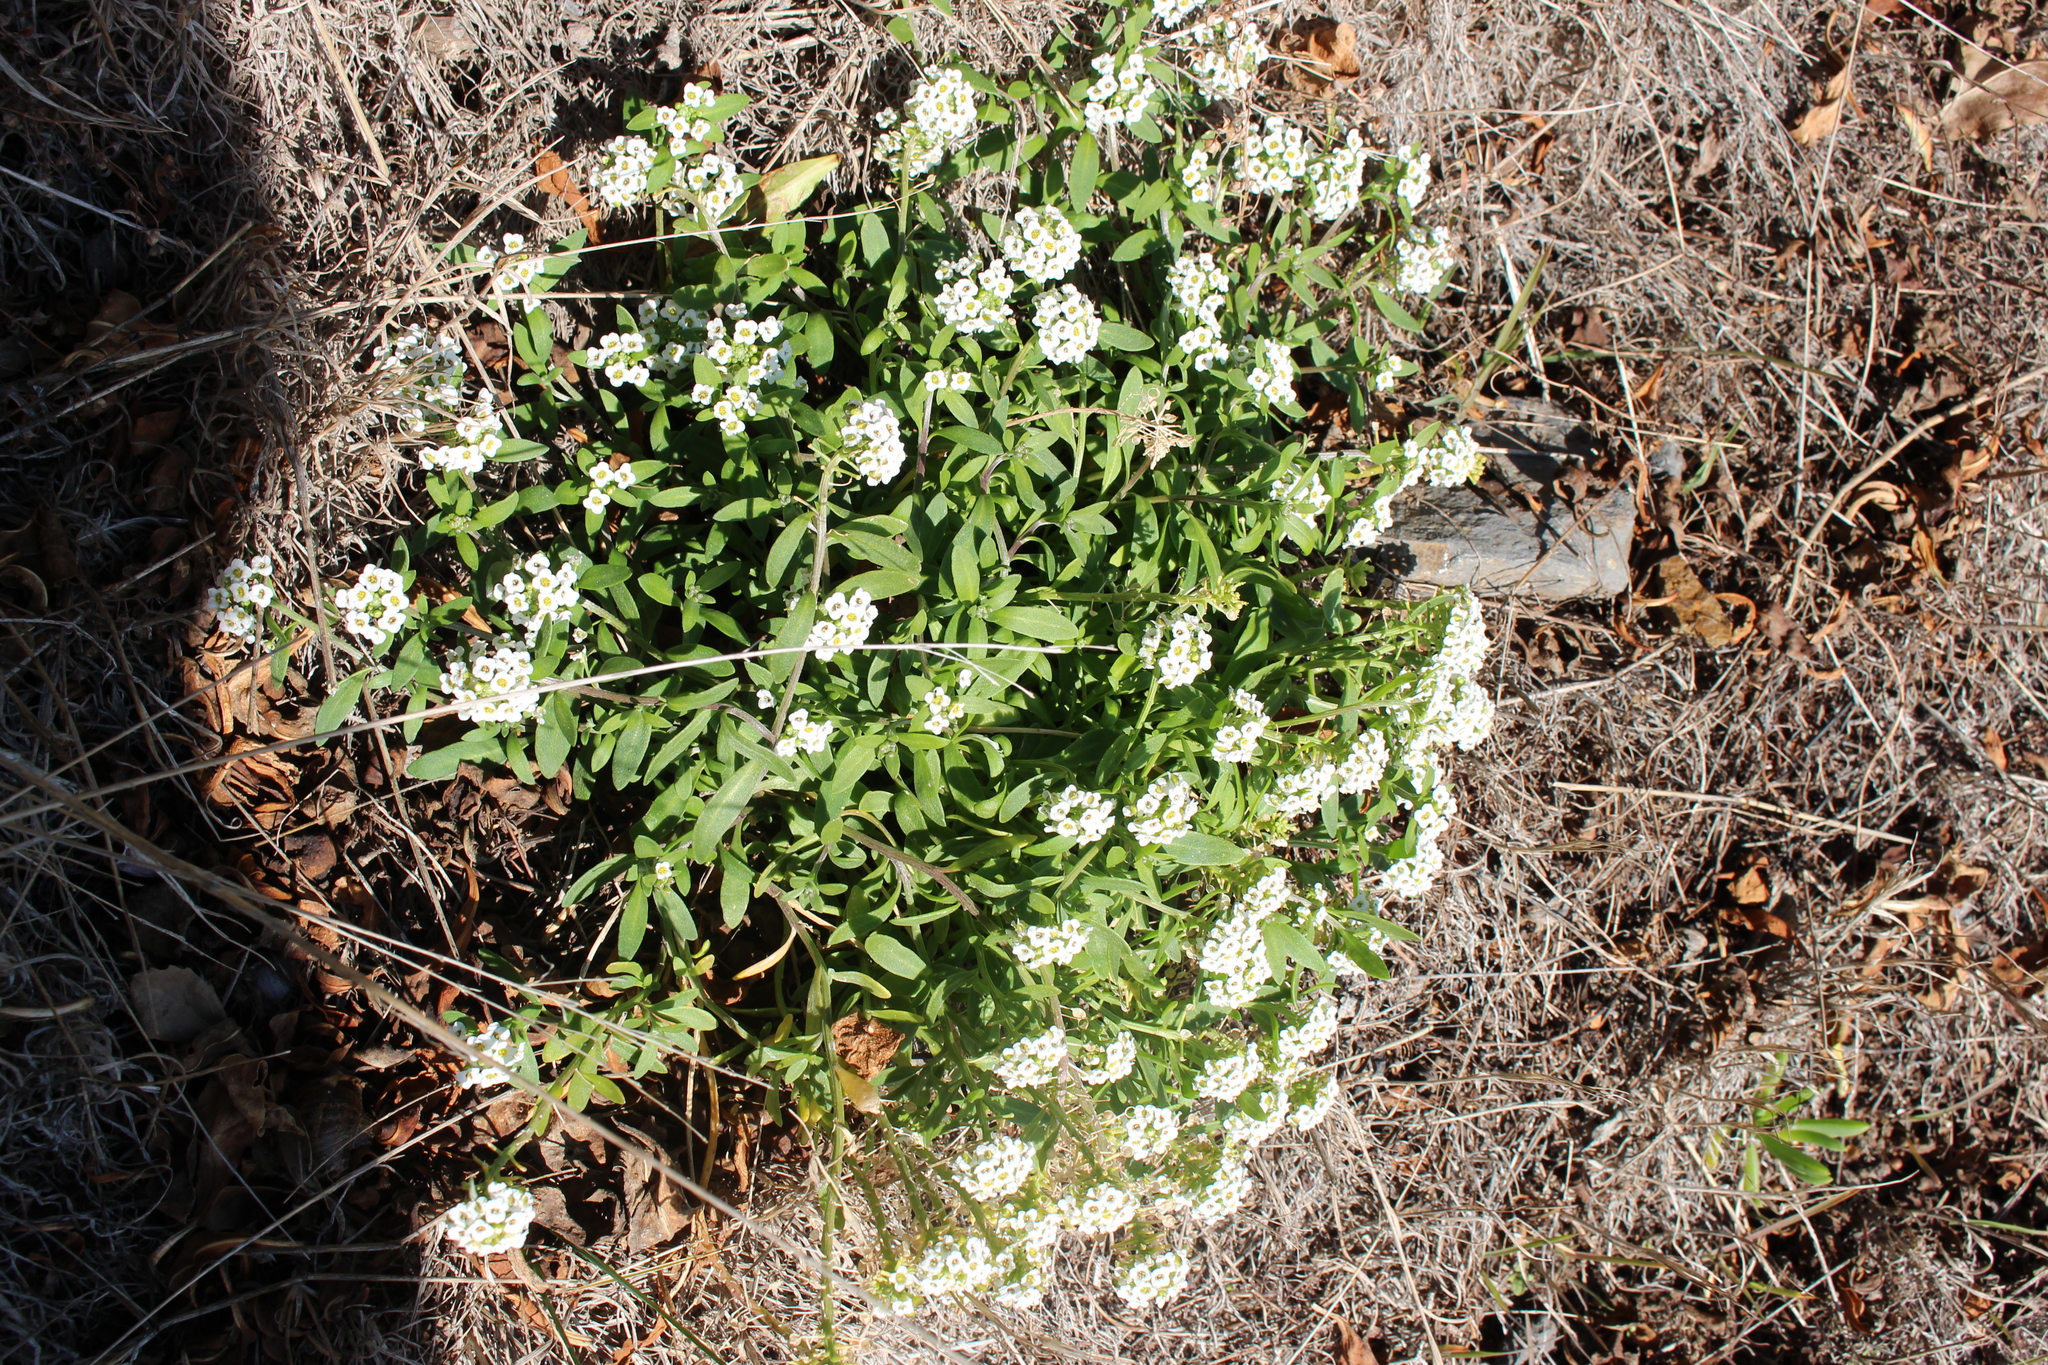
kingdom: Plantae
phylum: Tracheophyta
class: Magnoliopsida
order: Brassicales
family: Brassicaceae
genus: Lobularia
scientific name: Lobularia maritima
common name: Sweet alison
